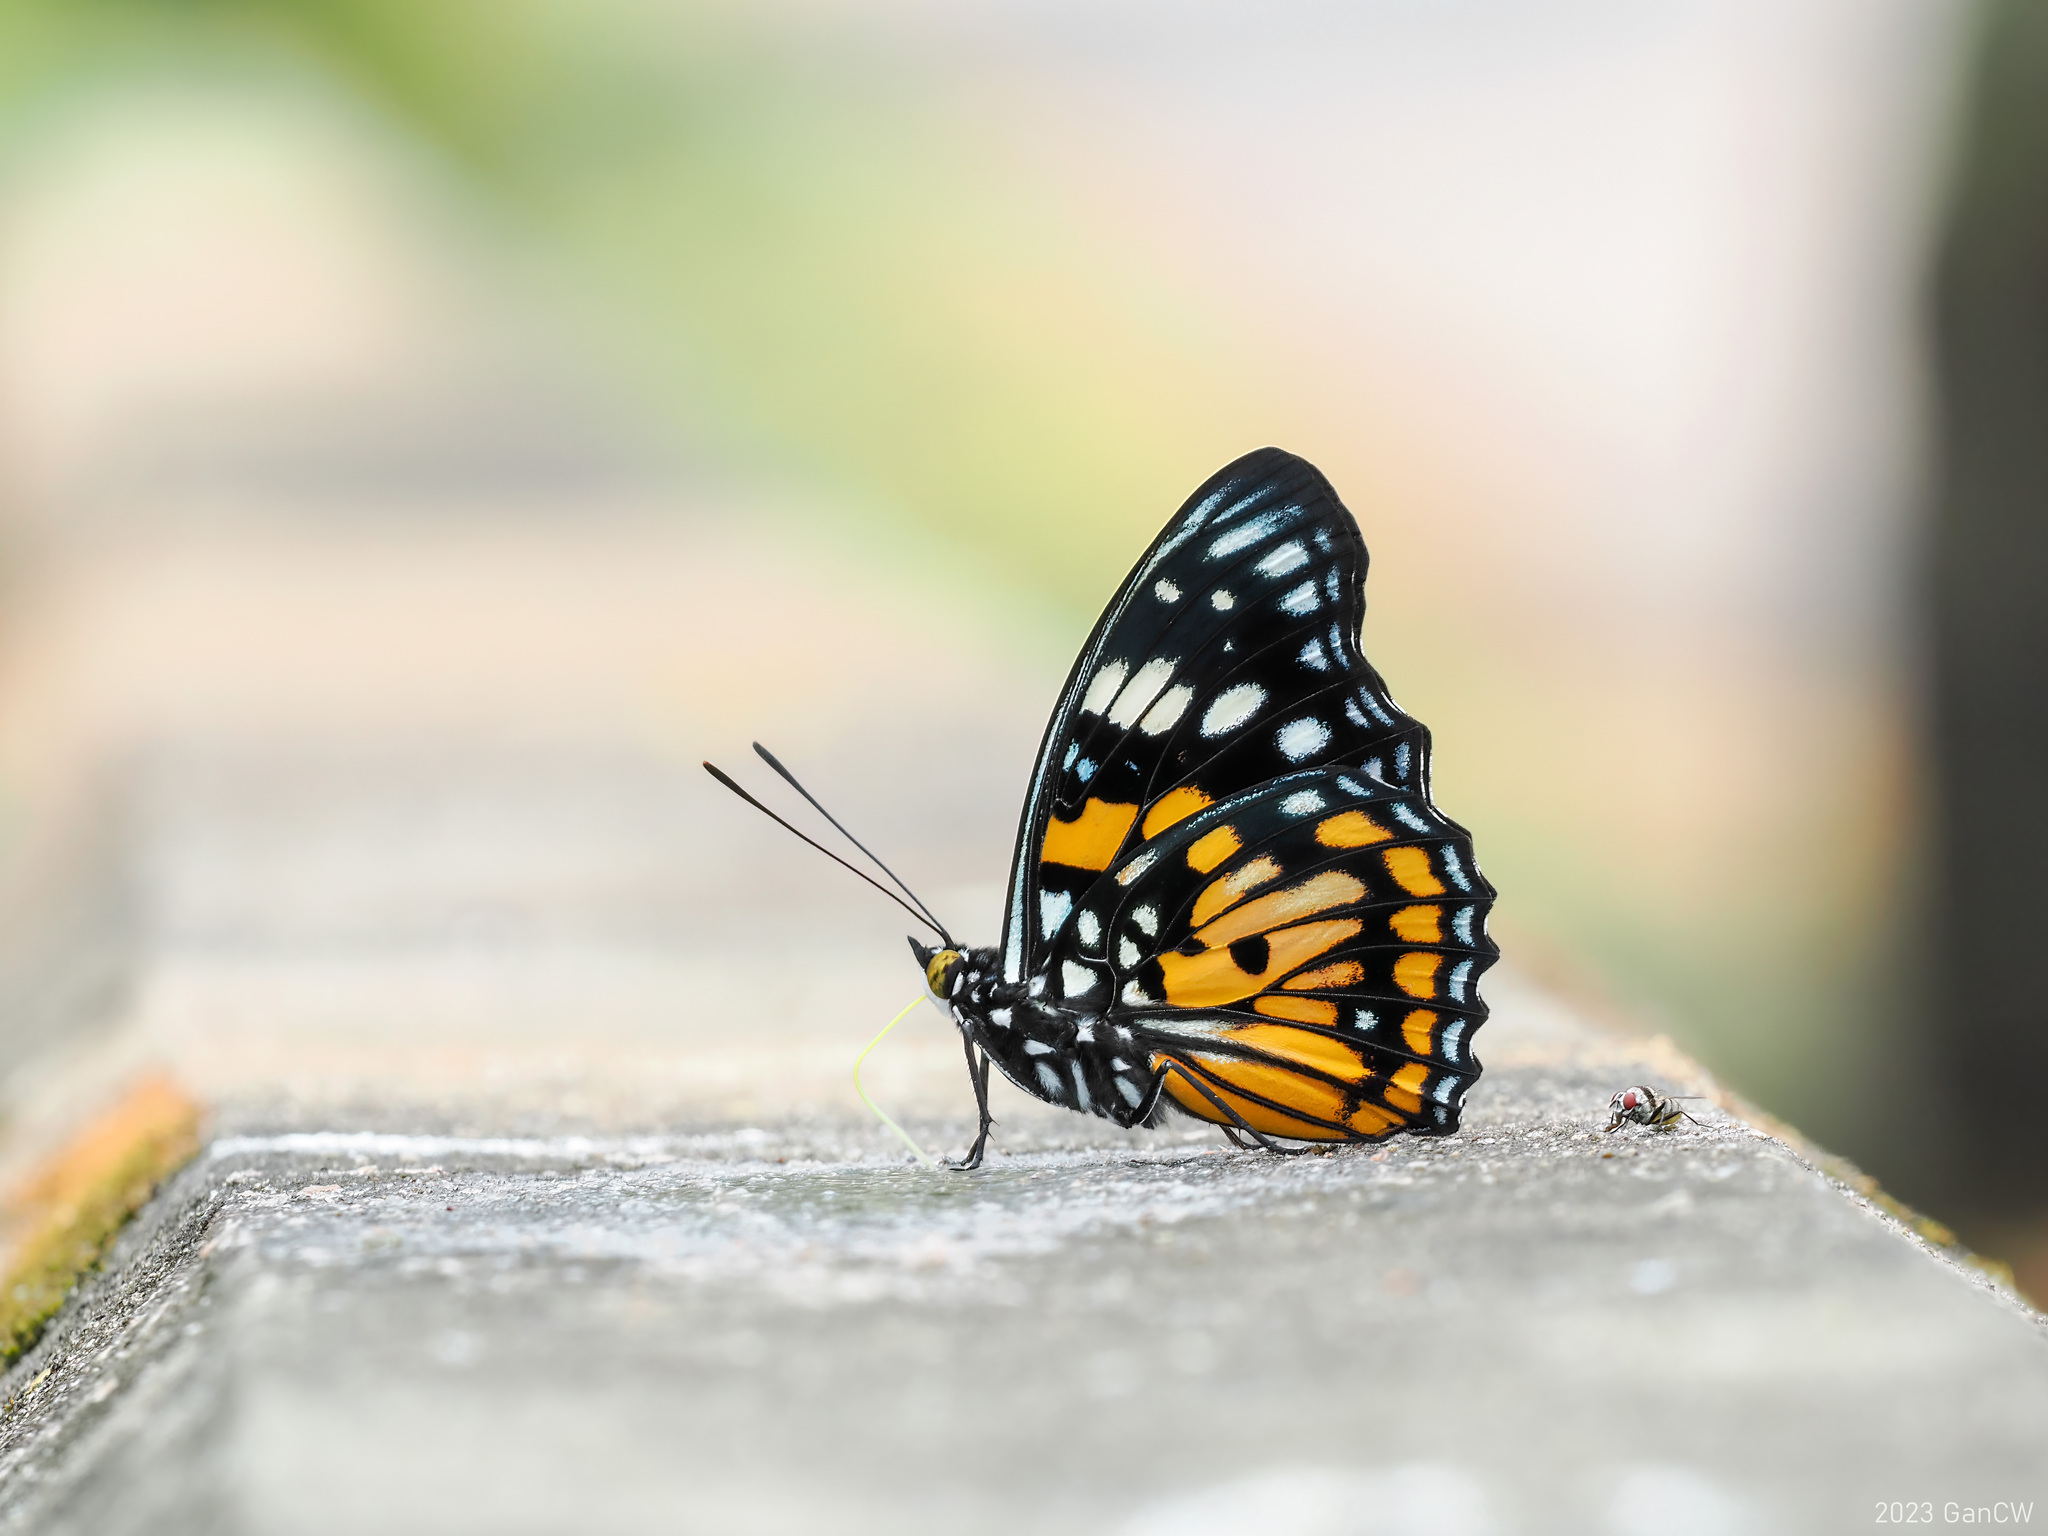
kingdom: Animalia
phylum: Arthropoda
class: Insecta
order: Lepidoptera
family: Nymphalidae
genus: Sephisa
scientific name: Sephisa chandra
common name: Eastern courtier
